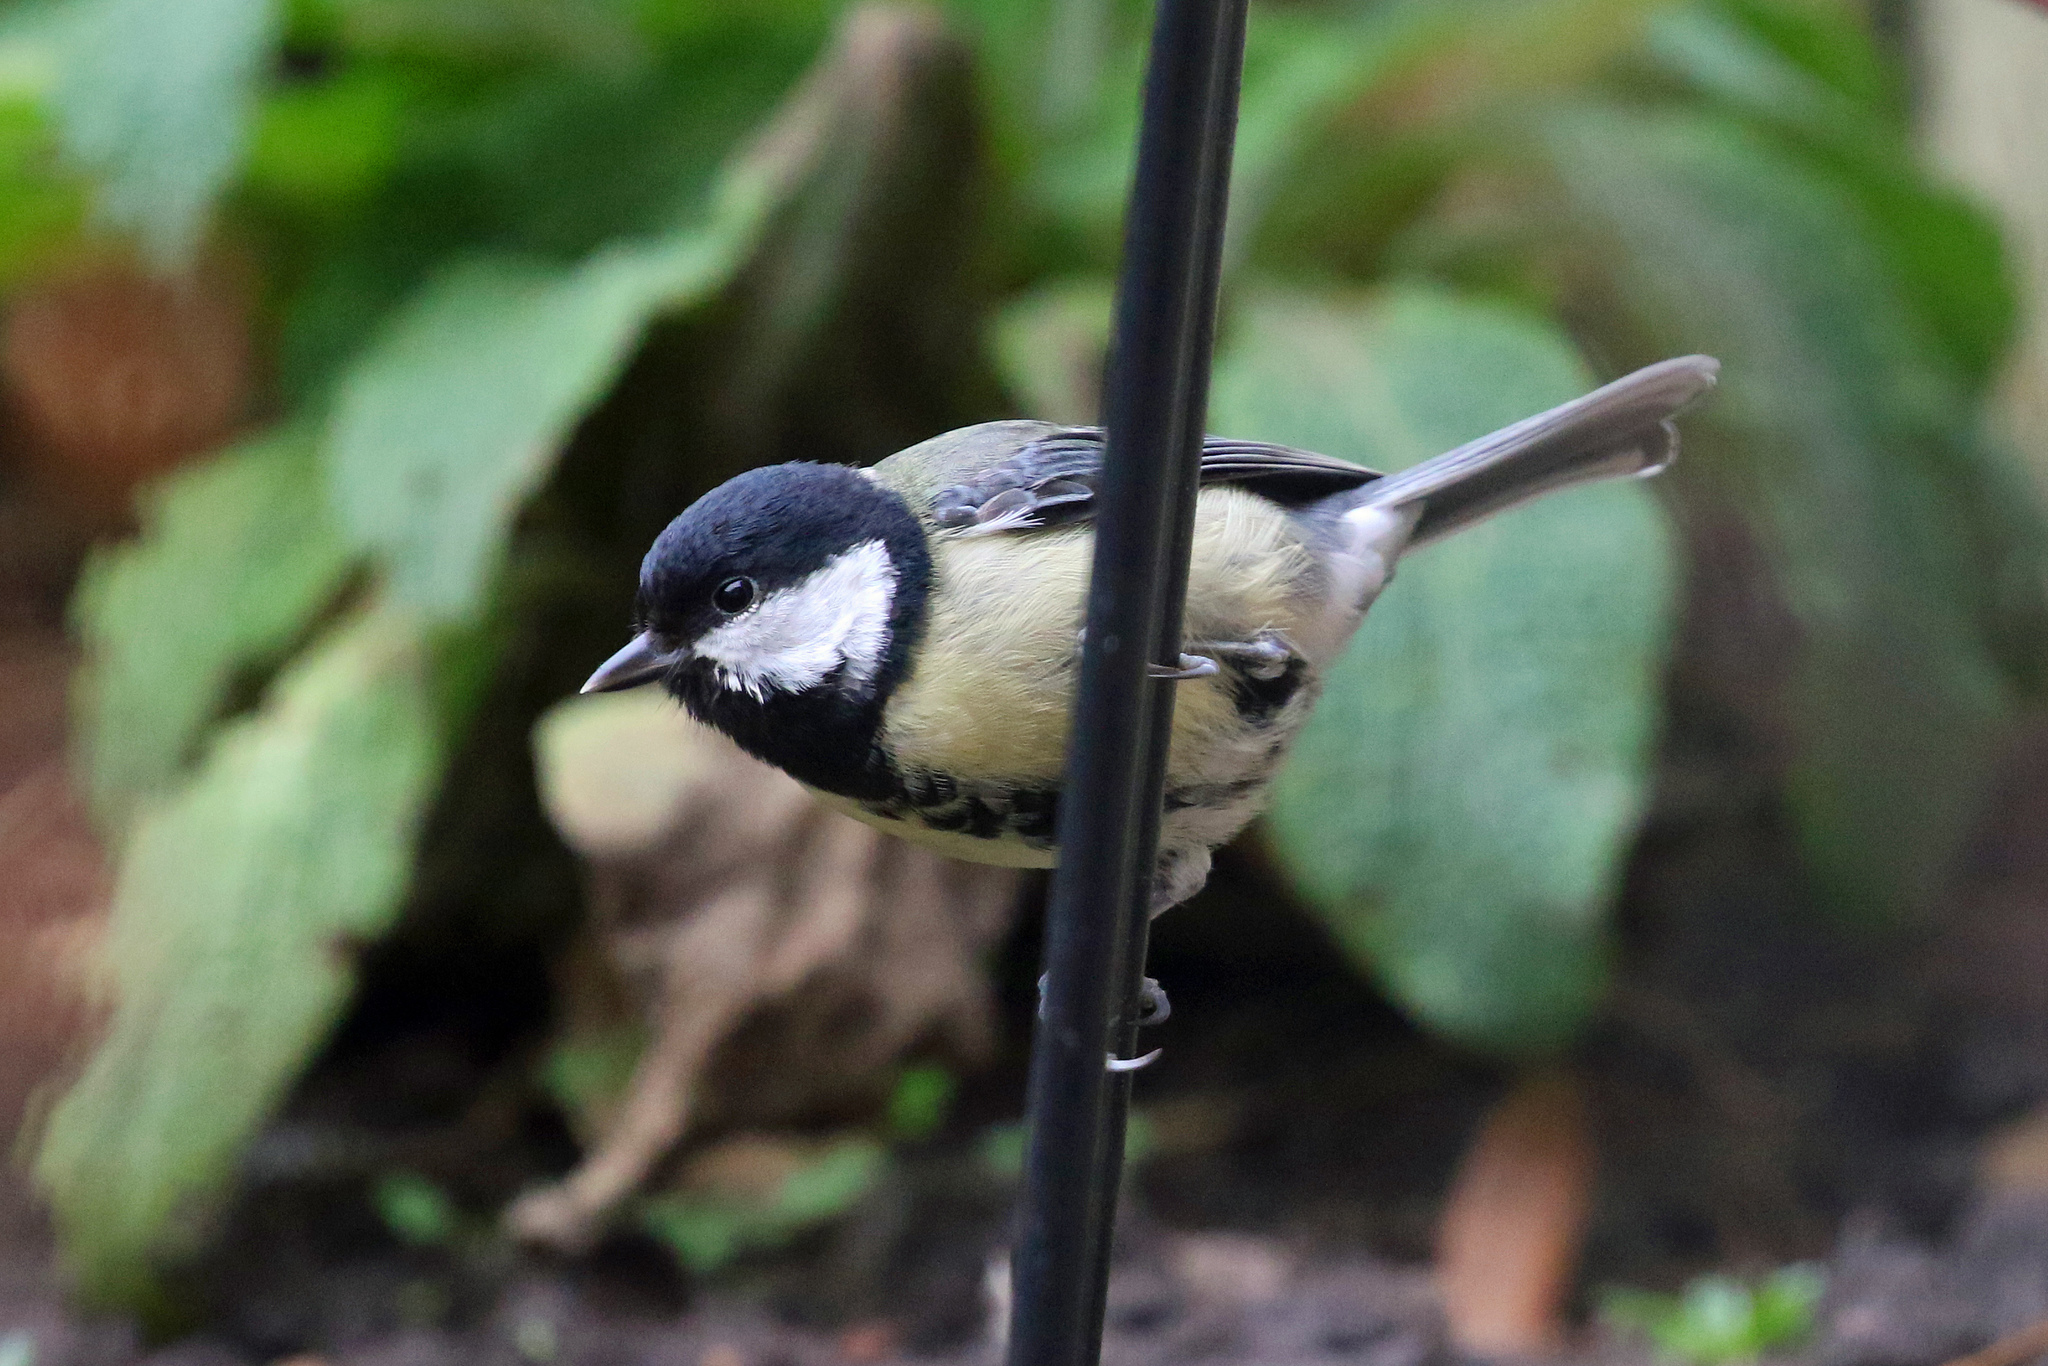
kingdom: Animalia
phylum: Chordata
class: Aves
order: Passeriformes
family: Paridae
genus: Parus
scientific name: Parus major
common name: Great tit
